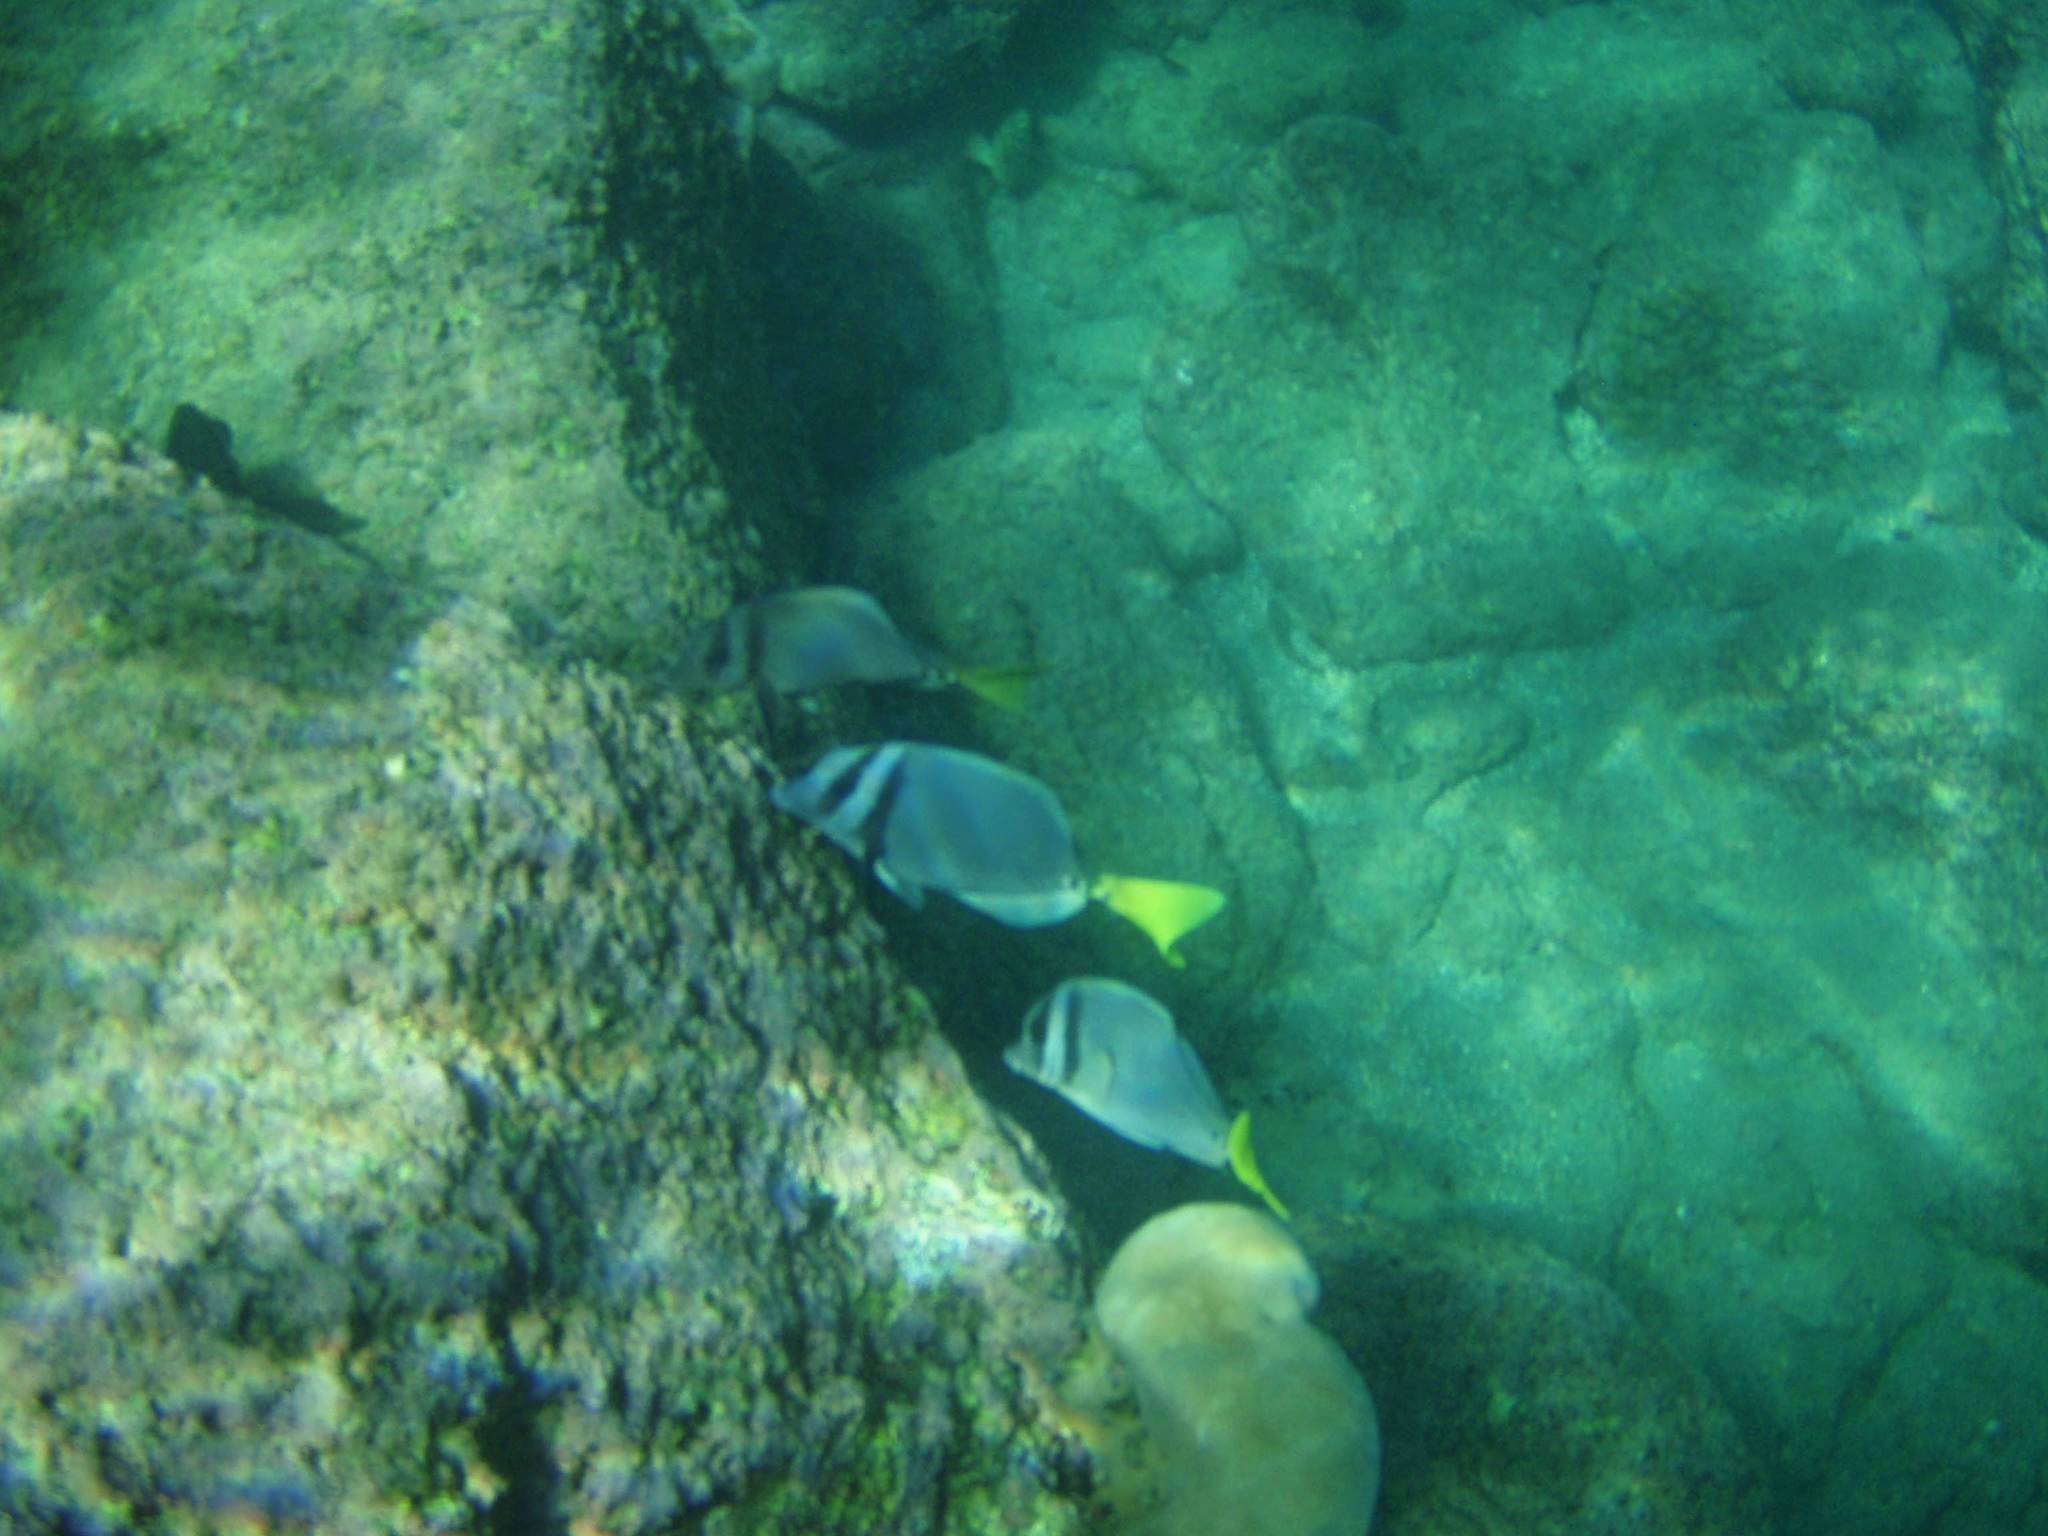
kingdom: Animalia
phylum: Chordata
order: Perciformes
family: Acanthuridae
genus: Prionurus
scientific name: Prionurus laticlavius
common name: Razor surgeonfish
